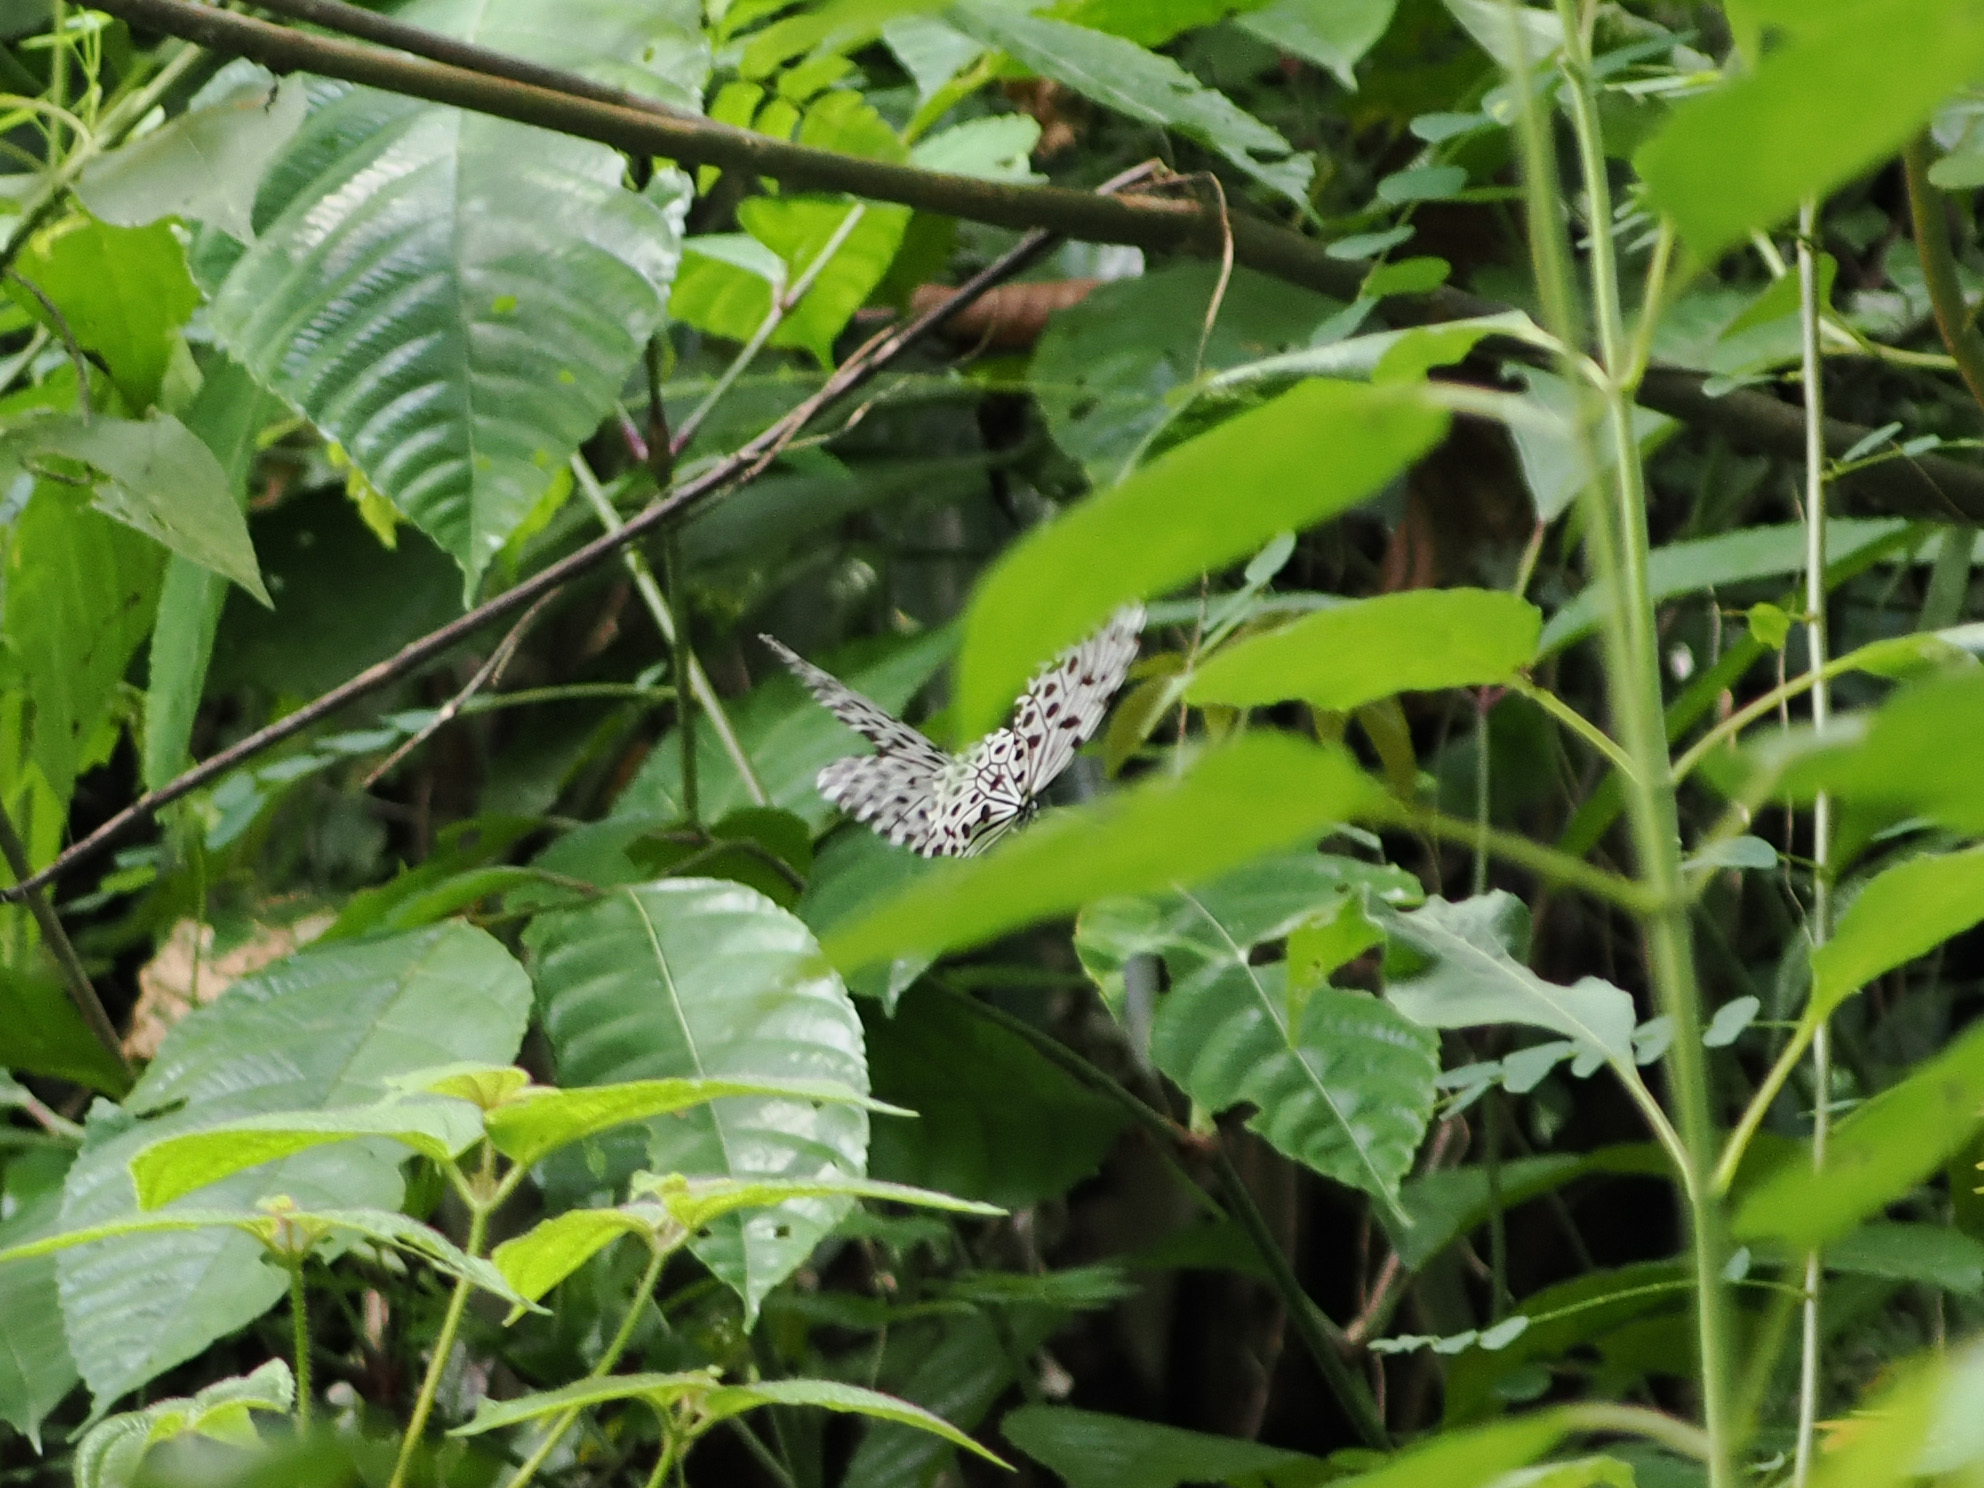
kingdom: Animalia
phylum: Arthropoda
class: Insecta
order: Lepidoptera
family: Nymphalidae
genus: Idea
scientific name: Idea stolli
